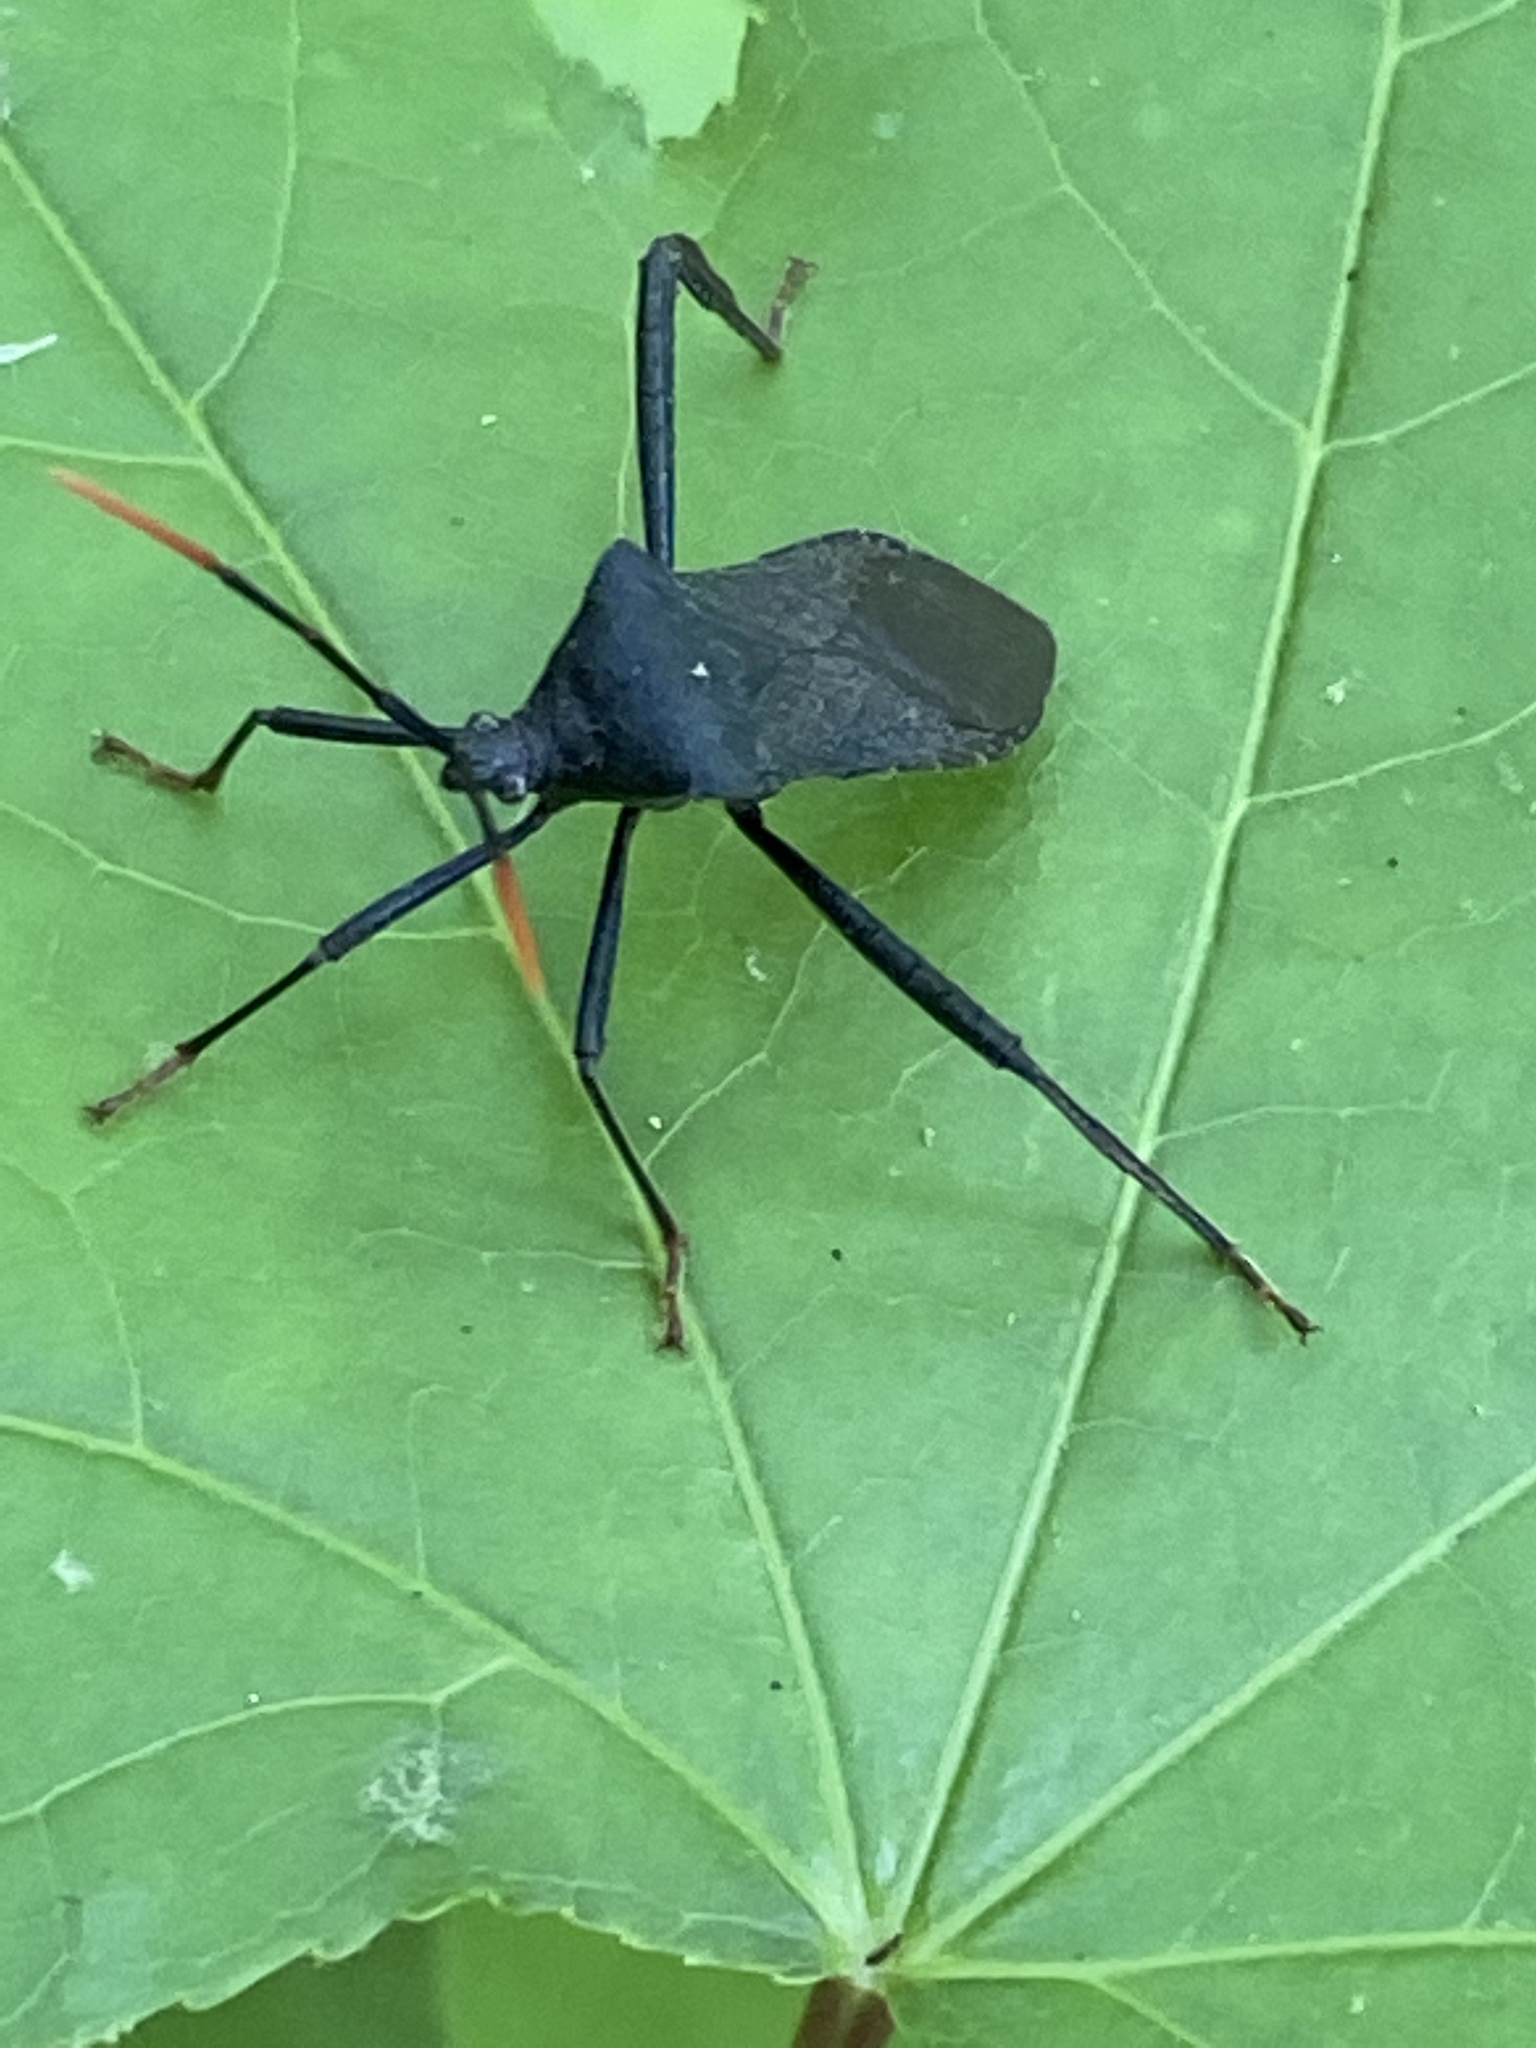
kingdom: Animalia
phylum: Arthropoda
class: Insecta
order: Hemiptera
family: Coreidae
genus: Acanthocephala
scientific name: Acanthocephala terminalis
